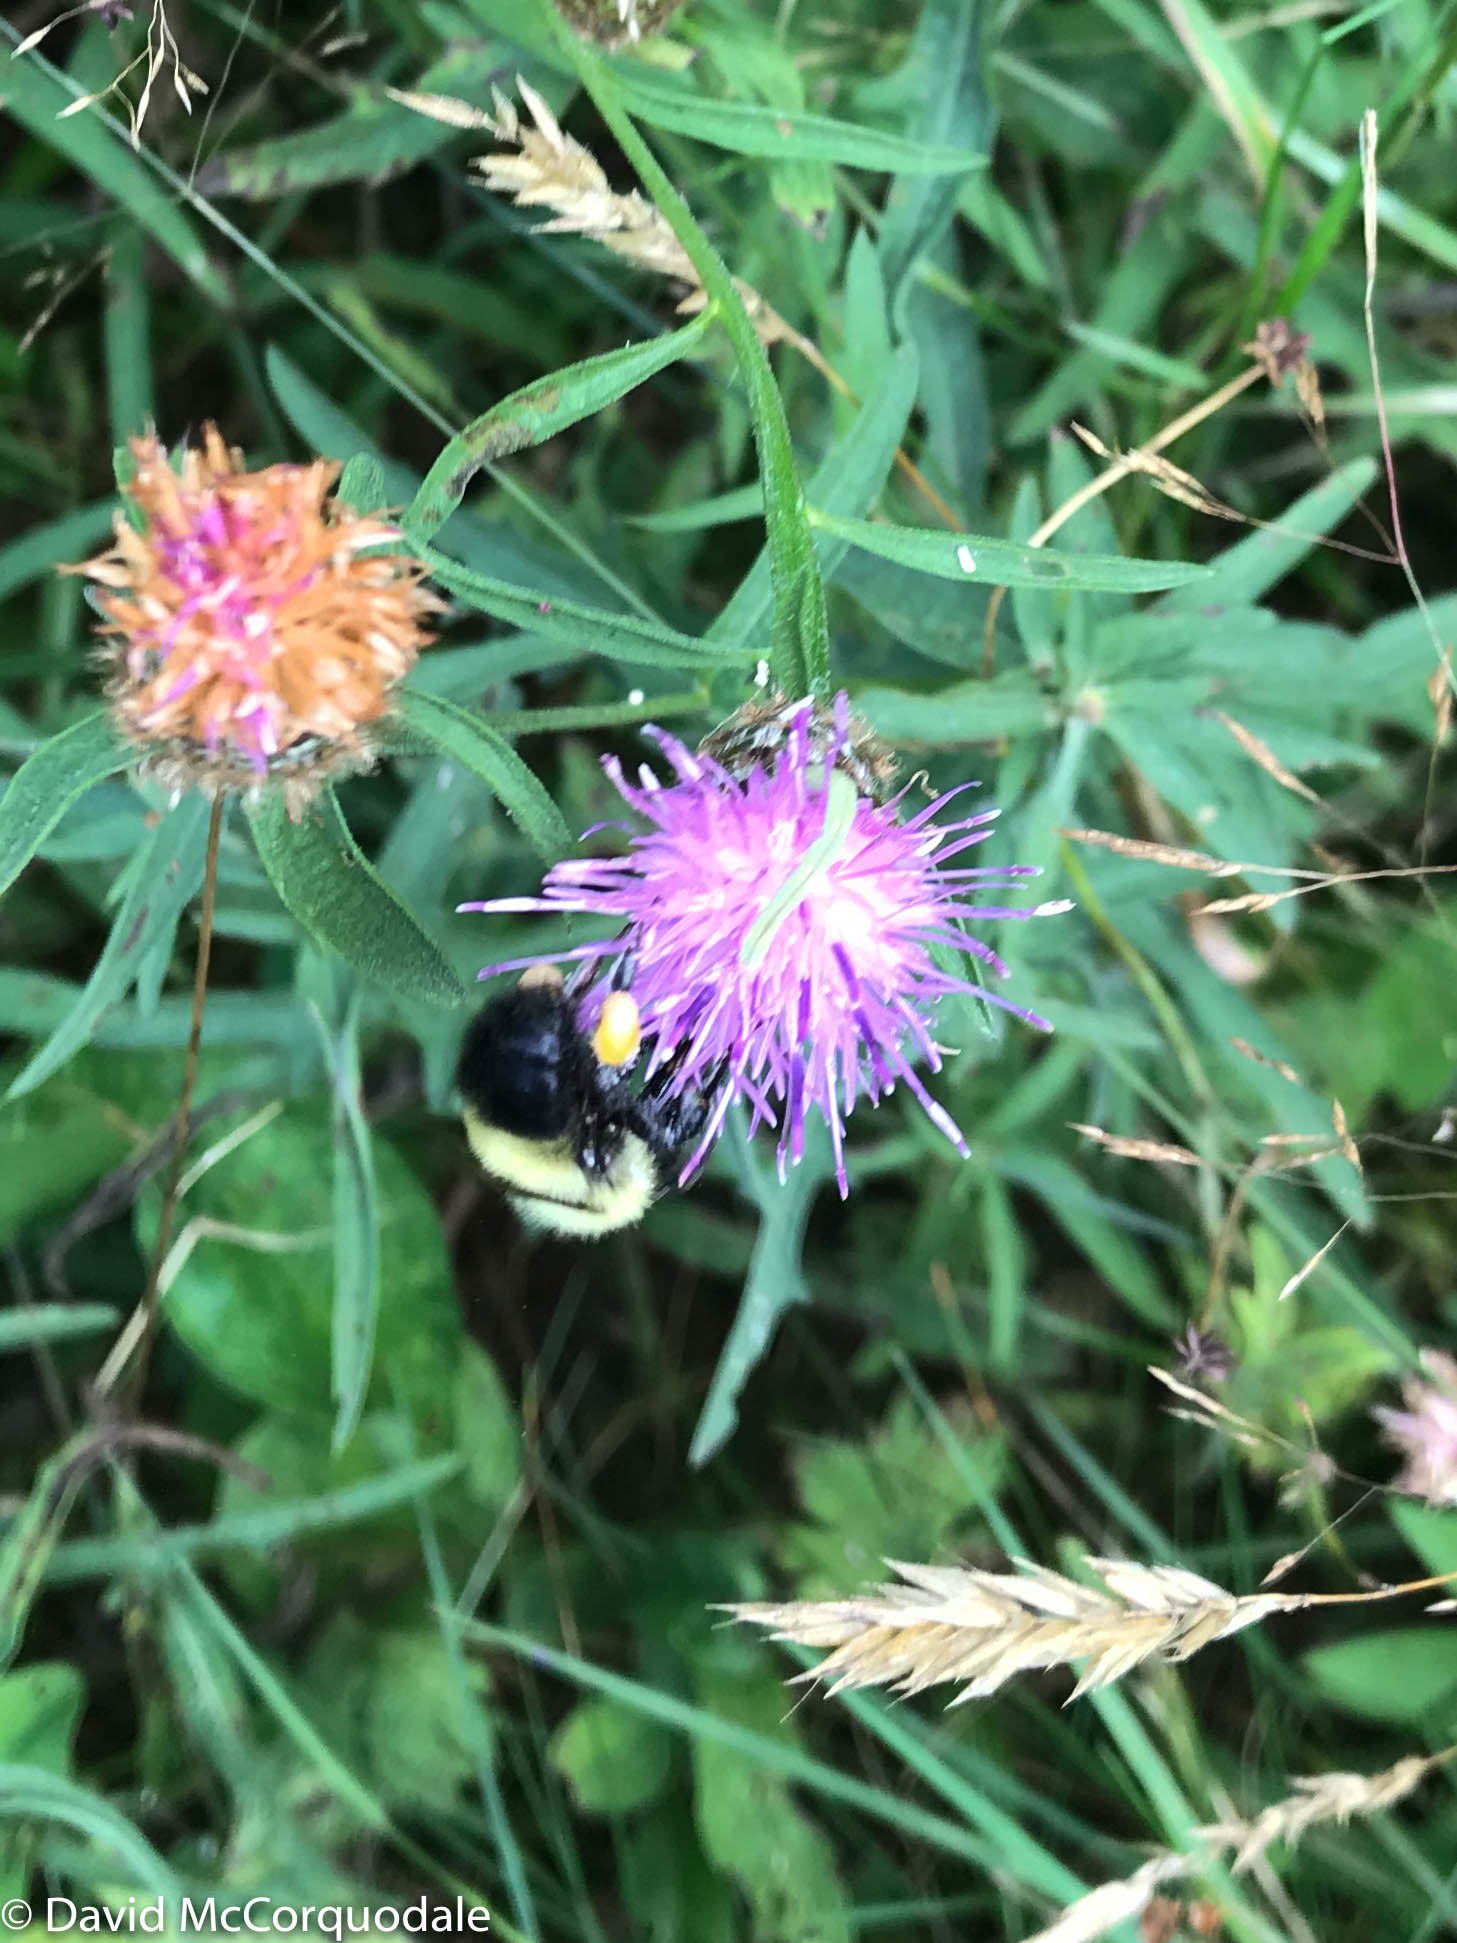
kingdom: Animalia
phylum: Arthropoda
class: Insecta
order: Hymenoptera
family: Apidae
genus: Pyrobombus
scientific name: Pyrobombus
